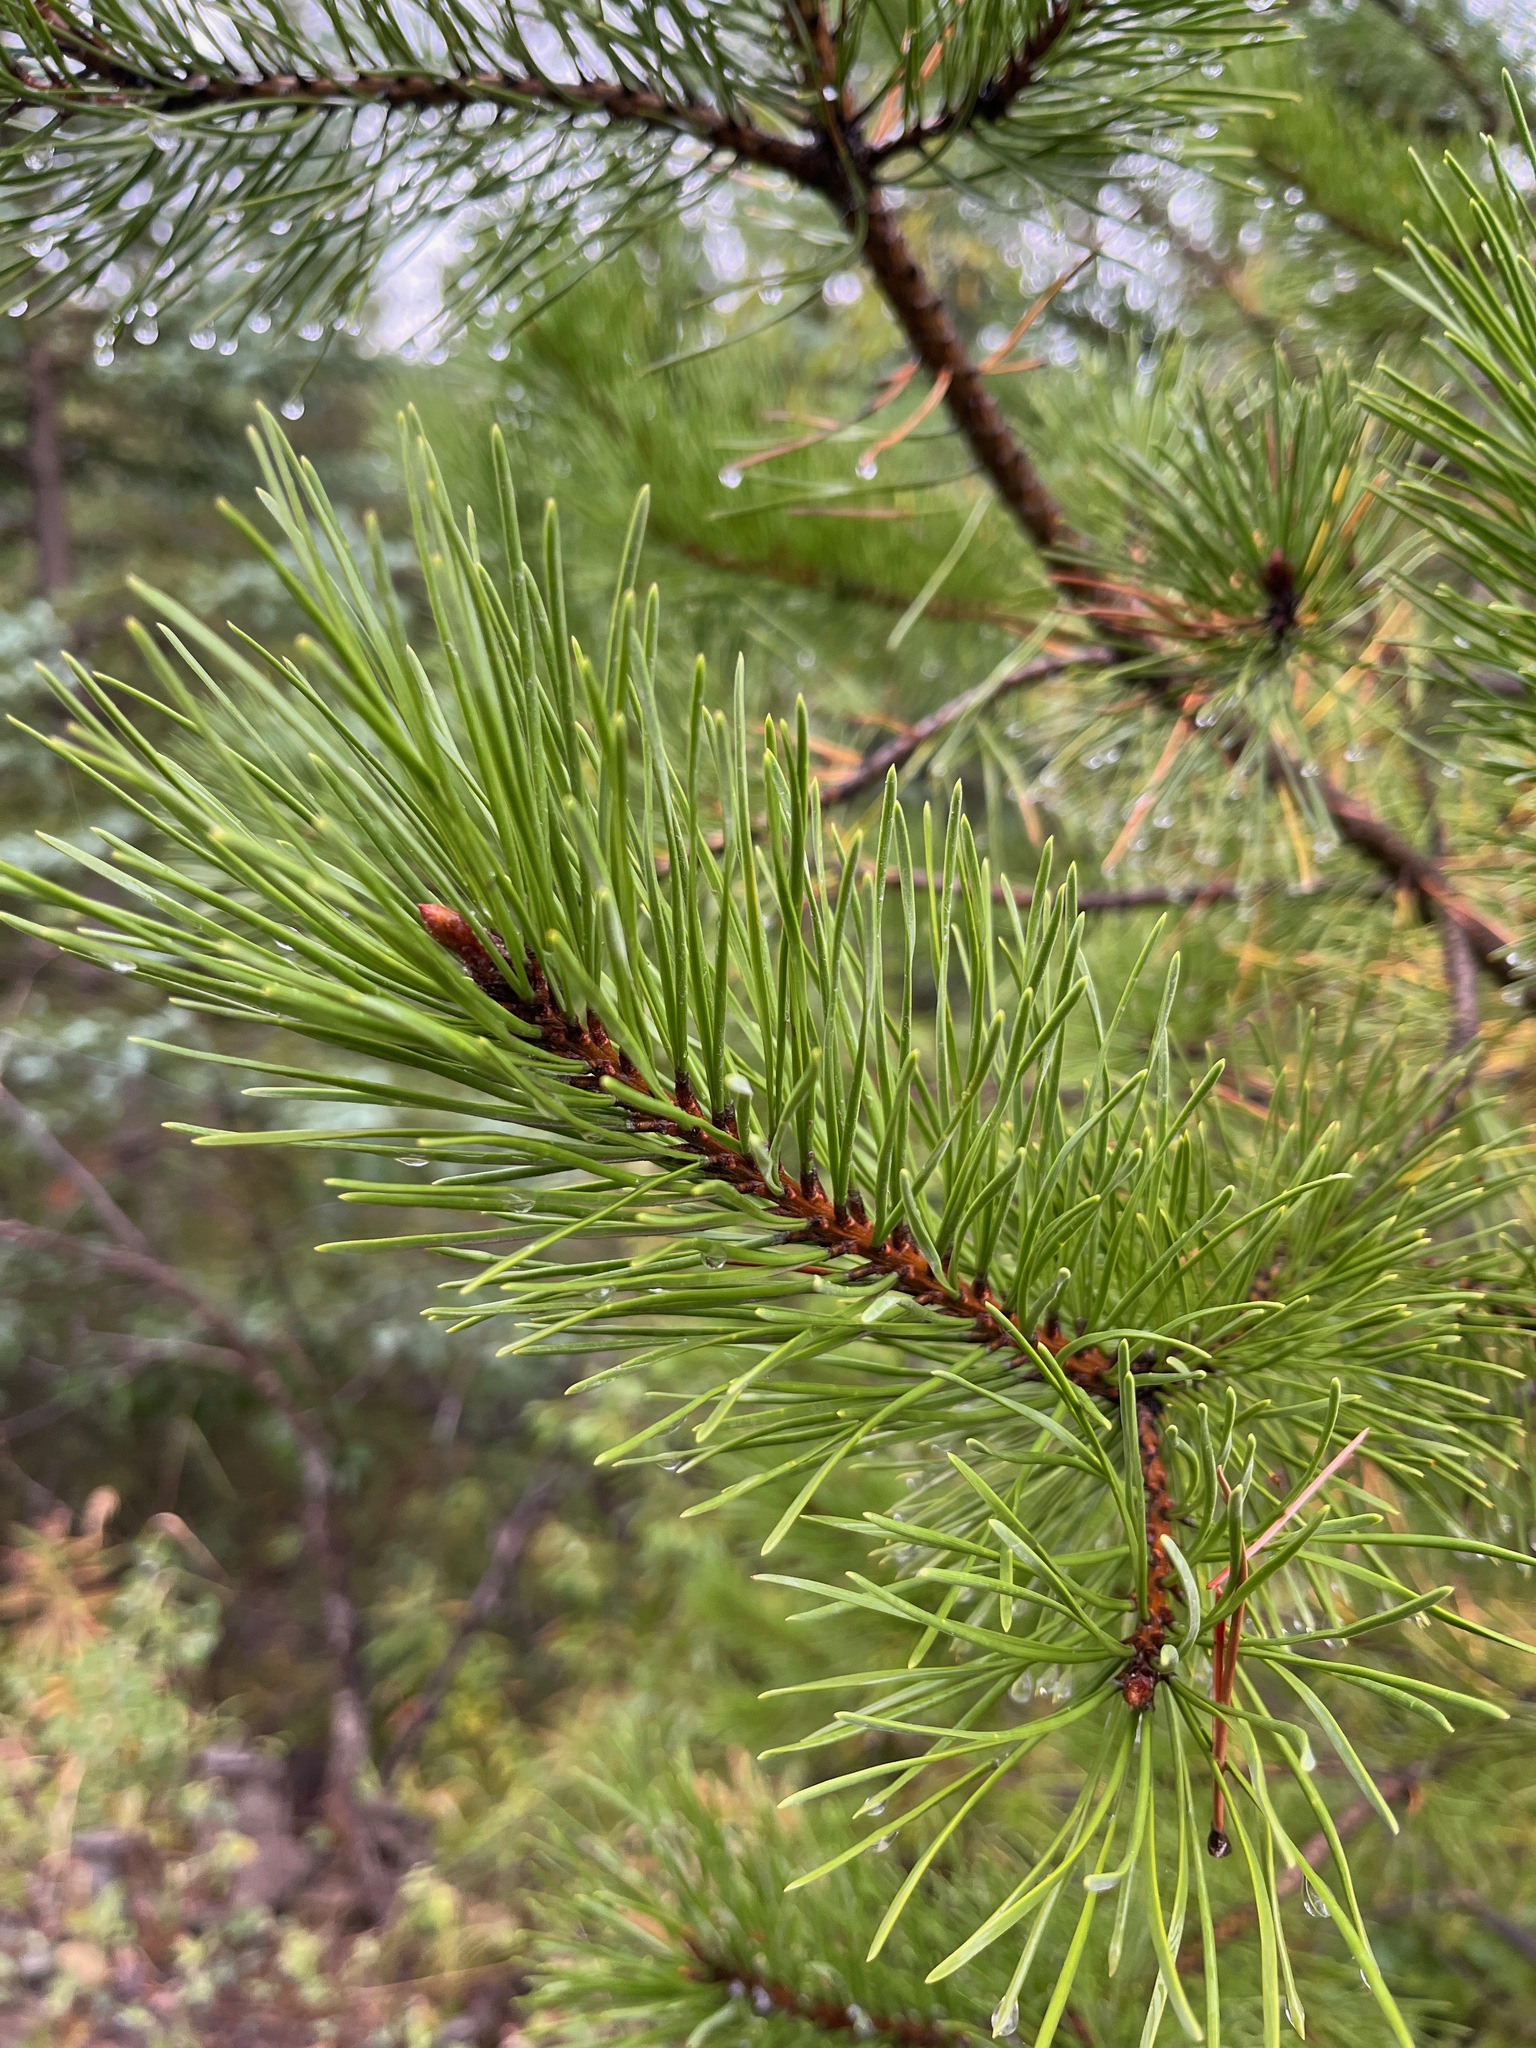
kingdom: Plantae
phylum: Tracheophyta
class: Pinopsida
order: Pinales
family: Pinaceae
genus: Pinus
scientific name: Pinus contorta
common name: Lodgepole pine
